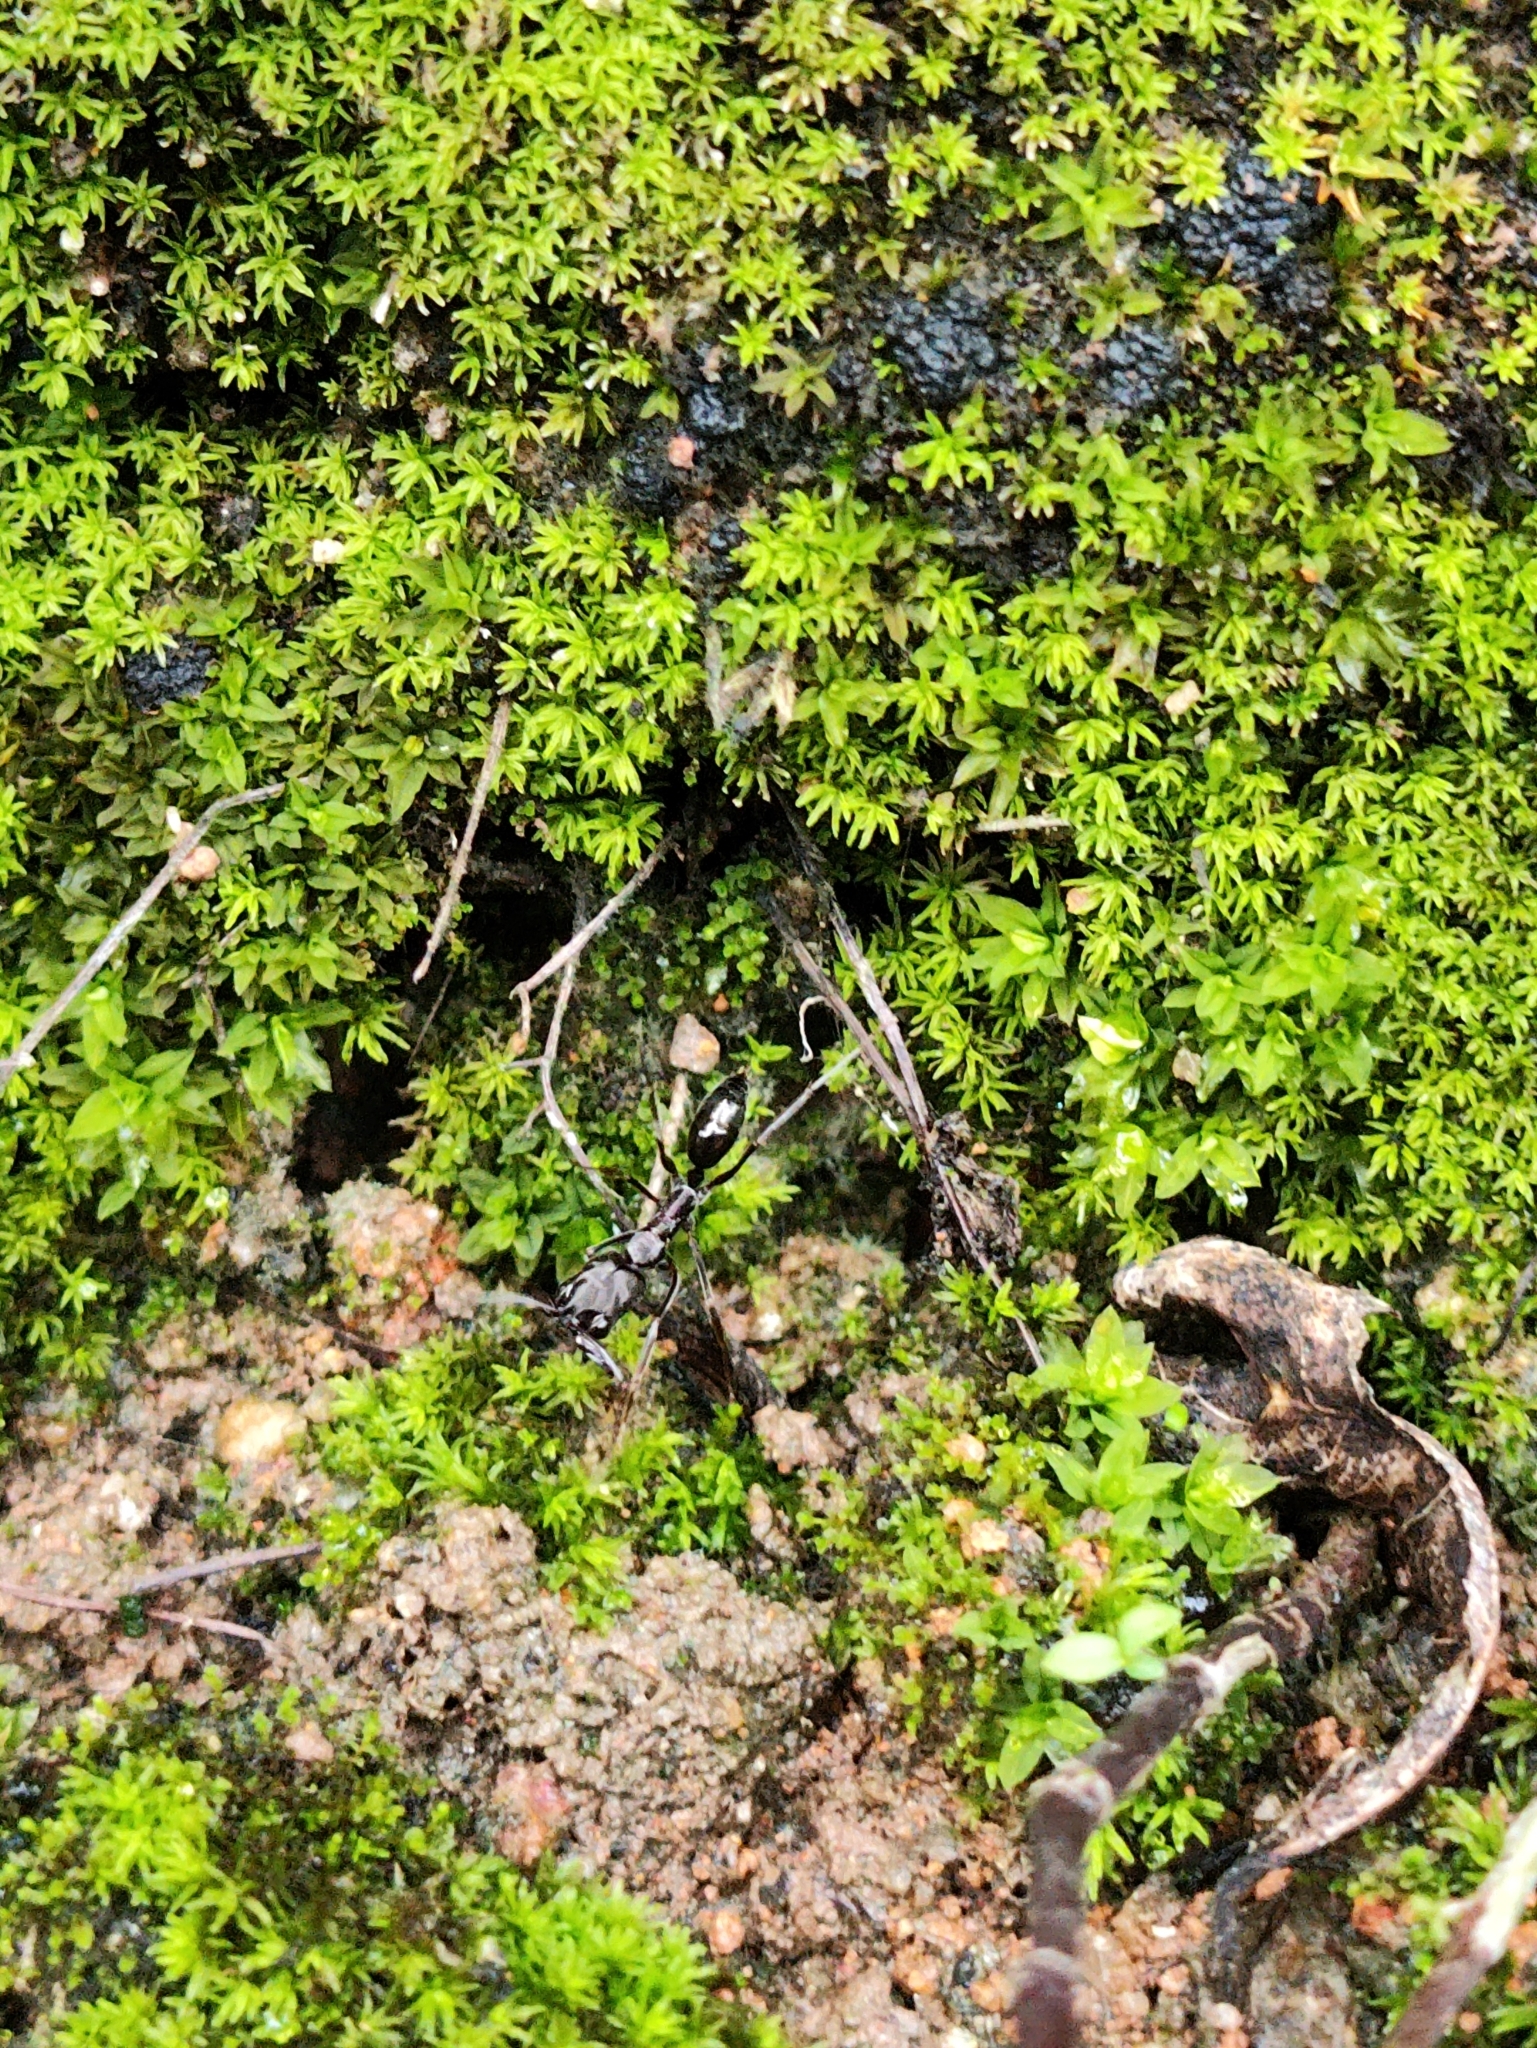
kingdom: Animalia
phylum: Arthropoda
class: Insecta
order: Hymenoptera
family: Formicidae
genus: Odontomachus
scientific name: Odontomachus simillimus
